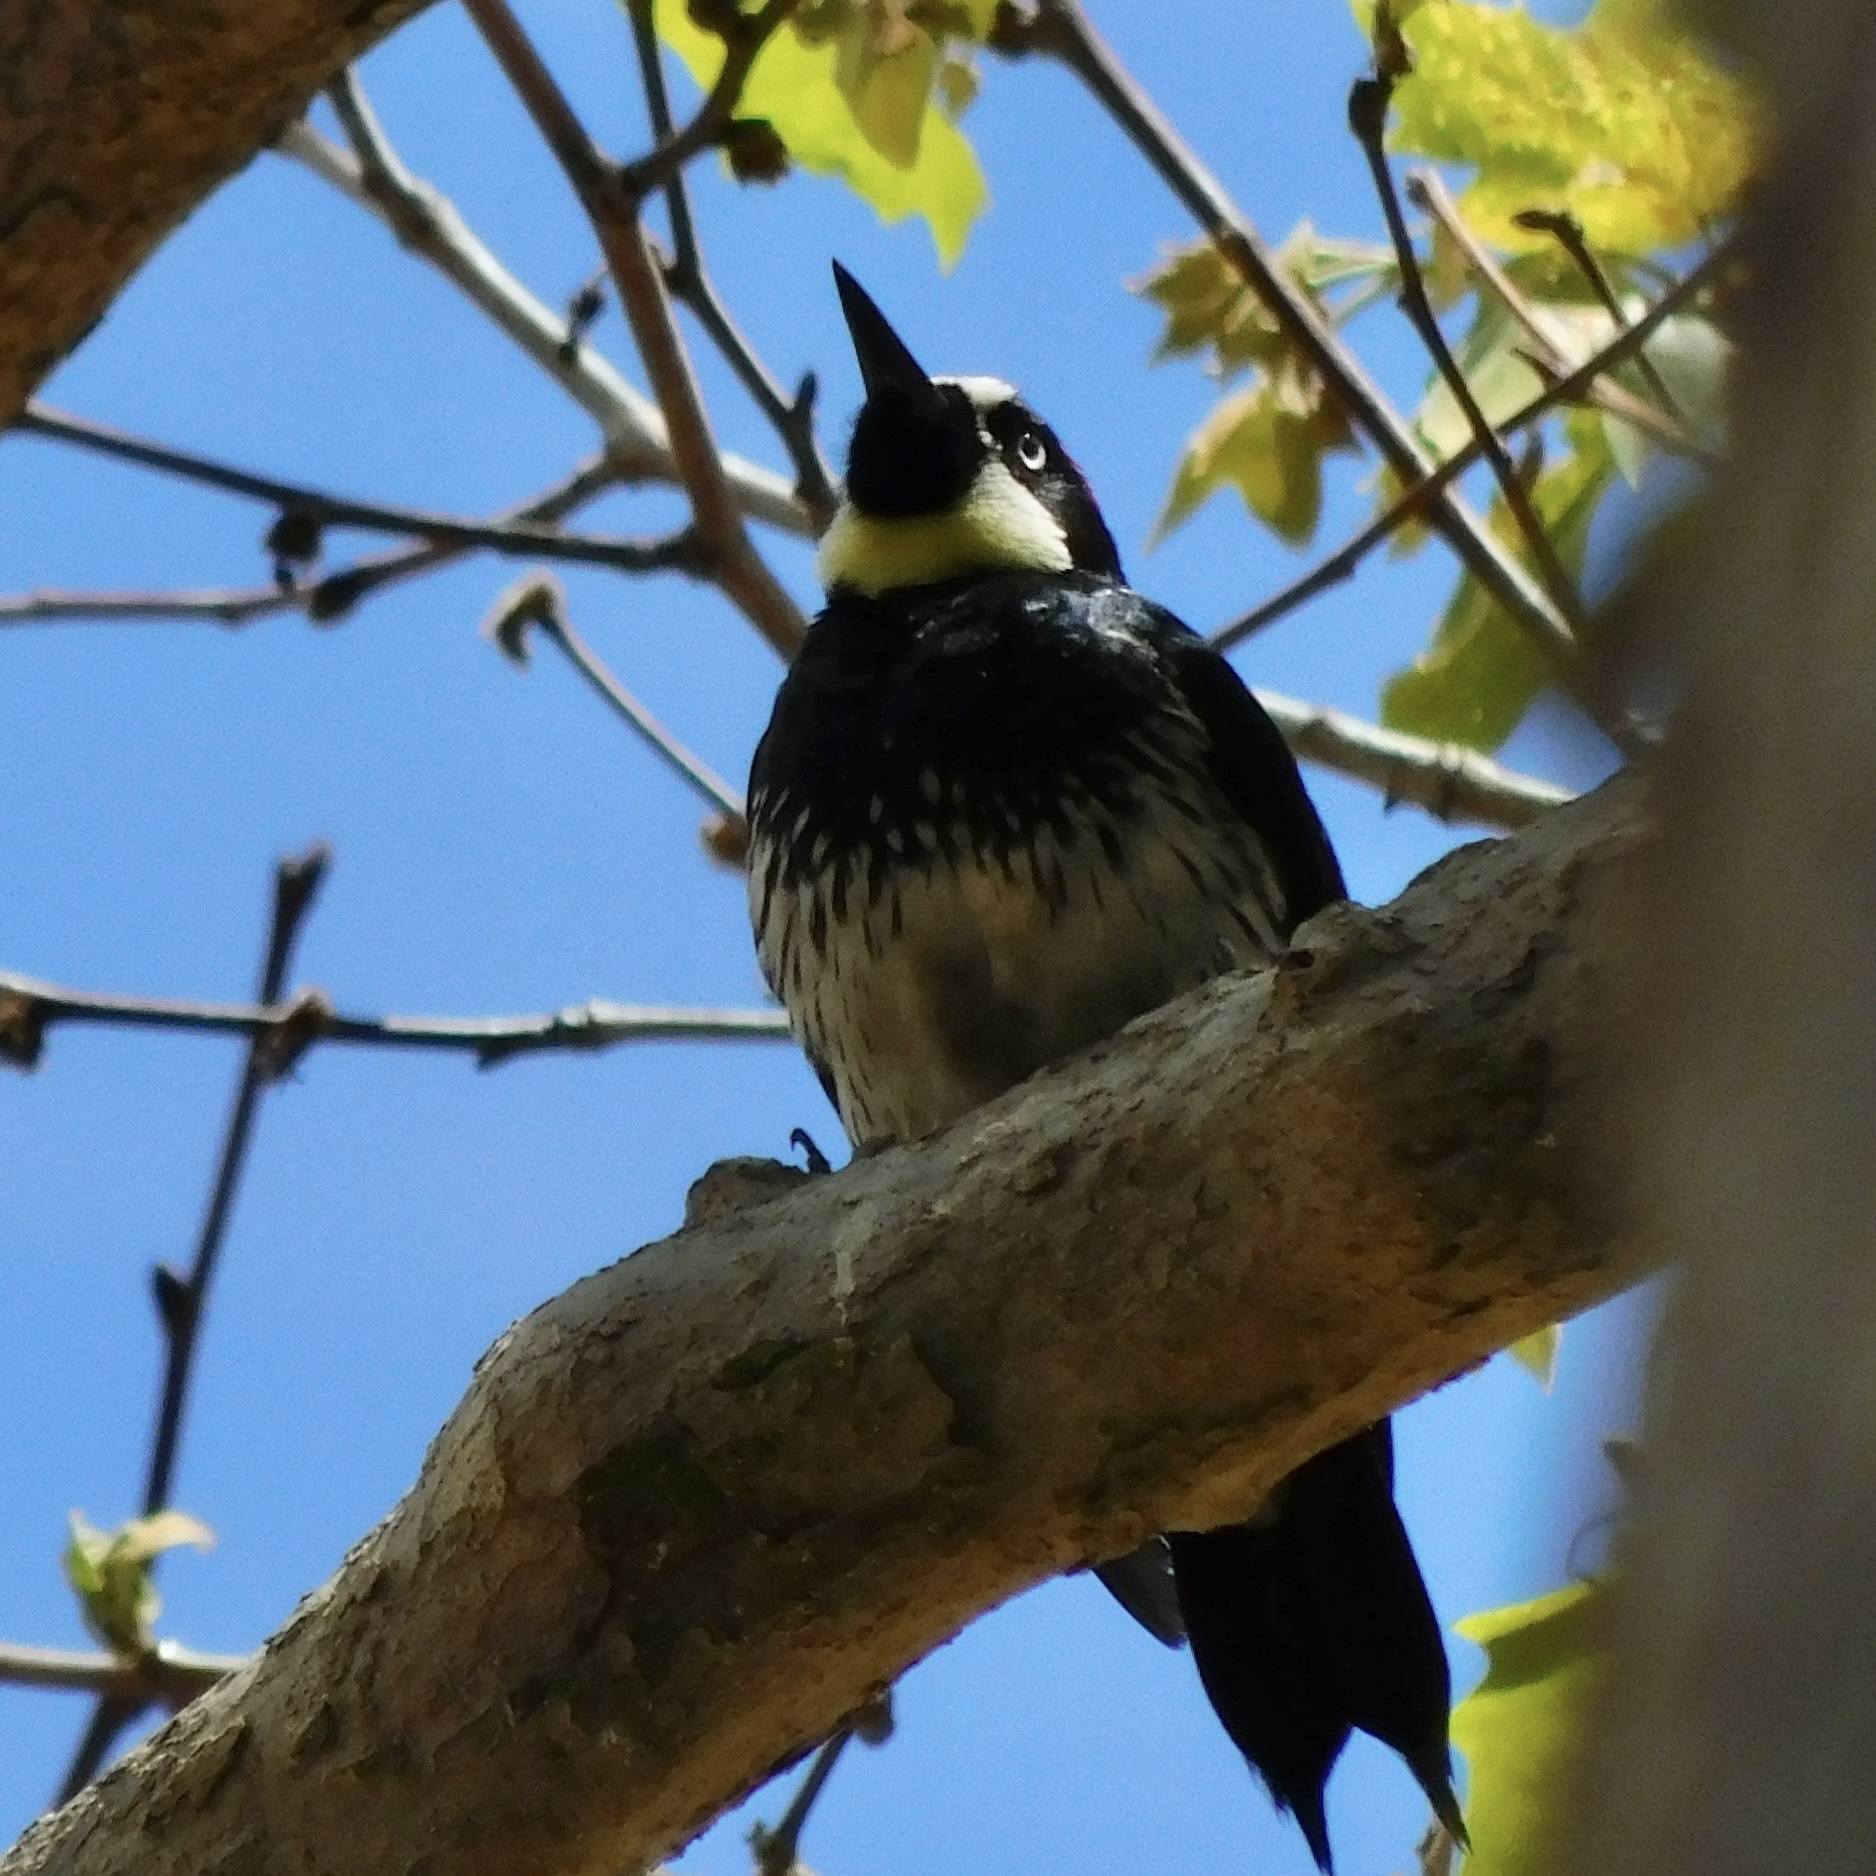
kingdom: Animalia
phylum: Chordata
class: Aves
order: Piciformes
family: Picidae
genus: Melanerpes
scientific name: Melanerpes formicivorus
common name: Acorn woodpecker
